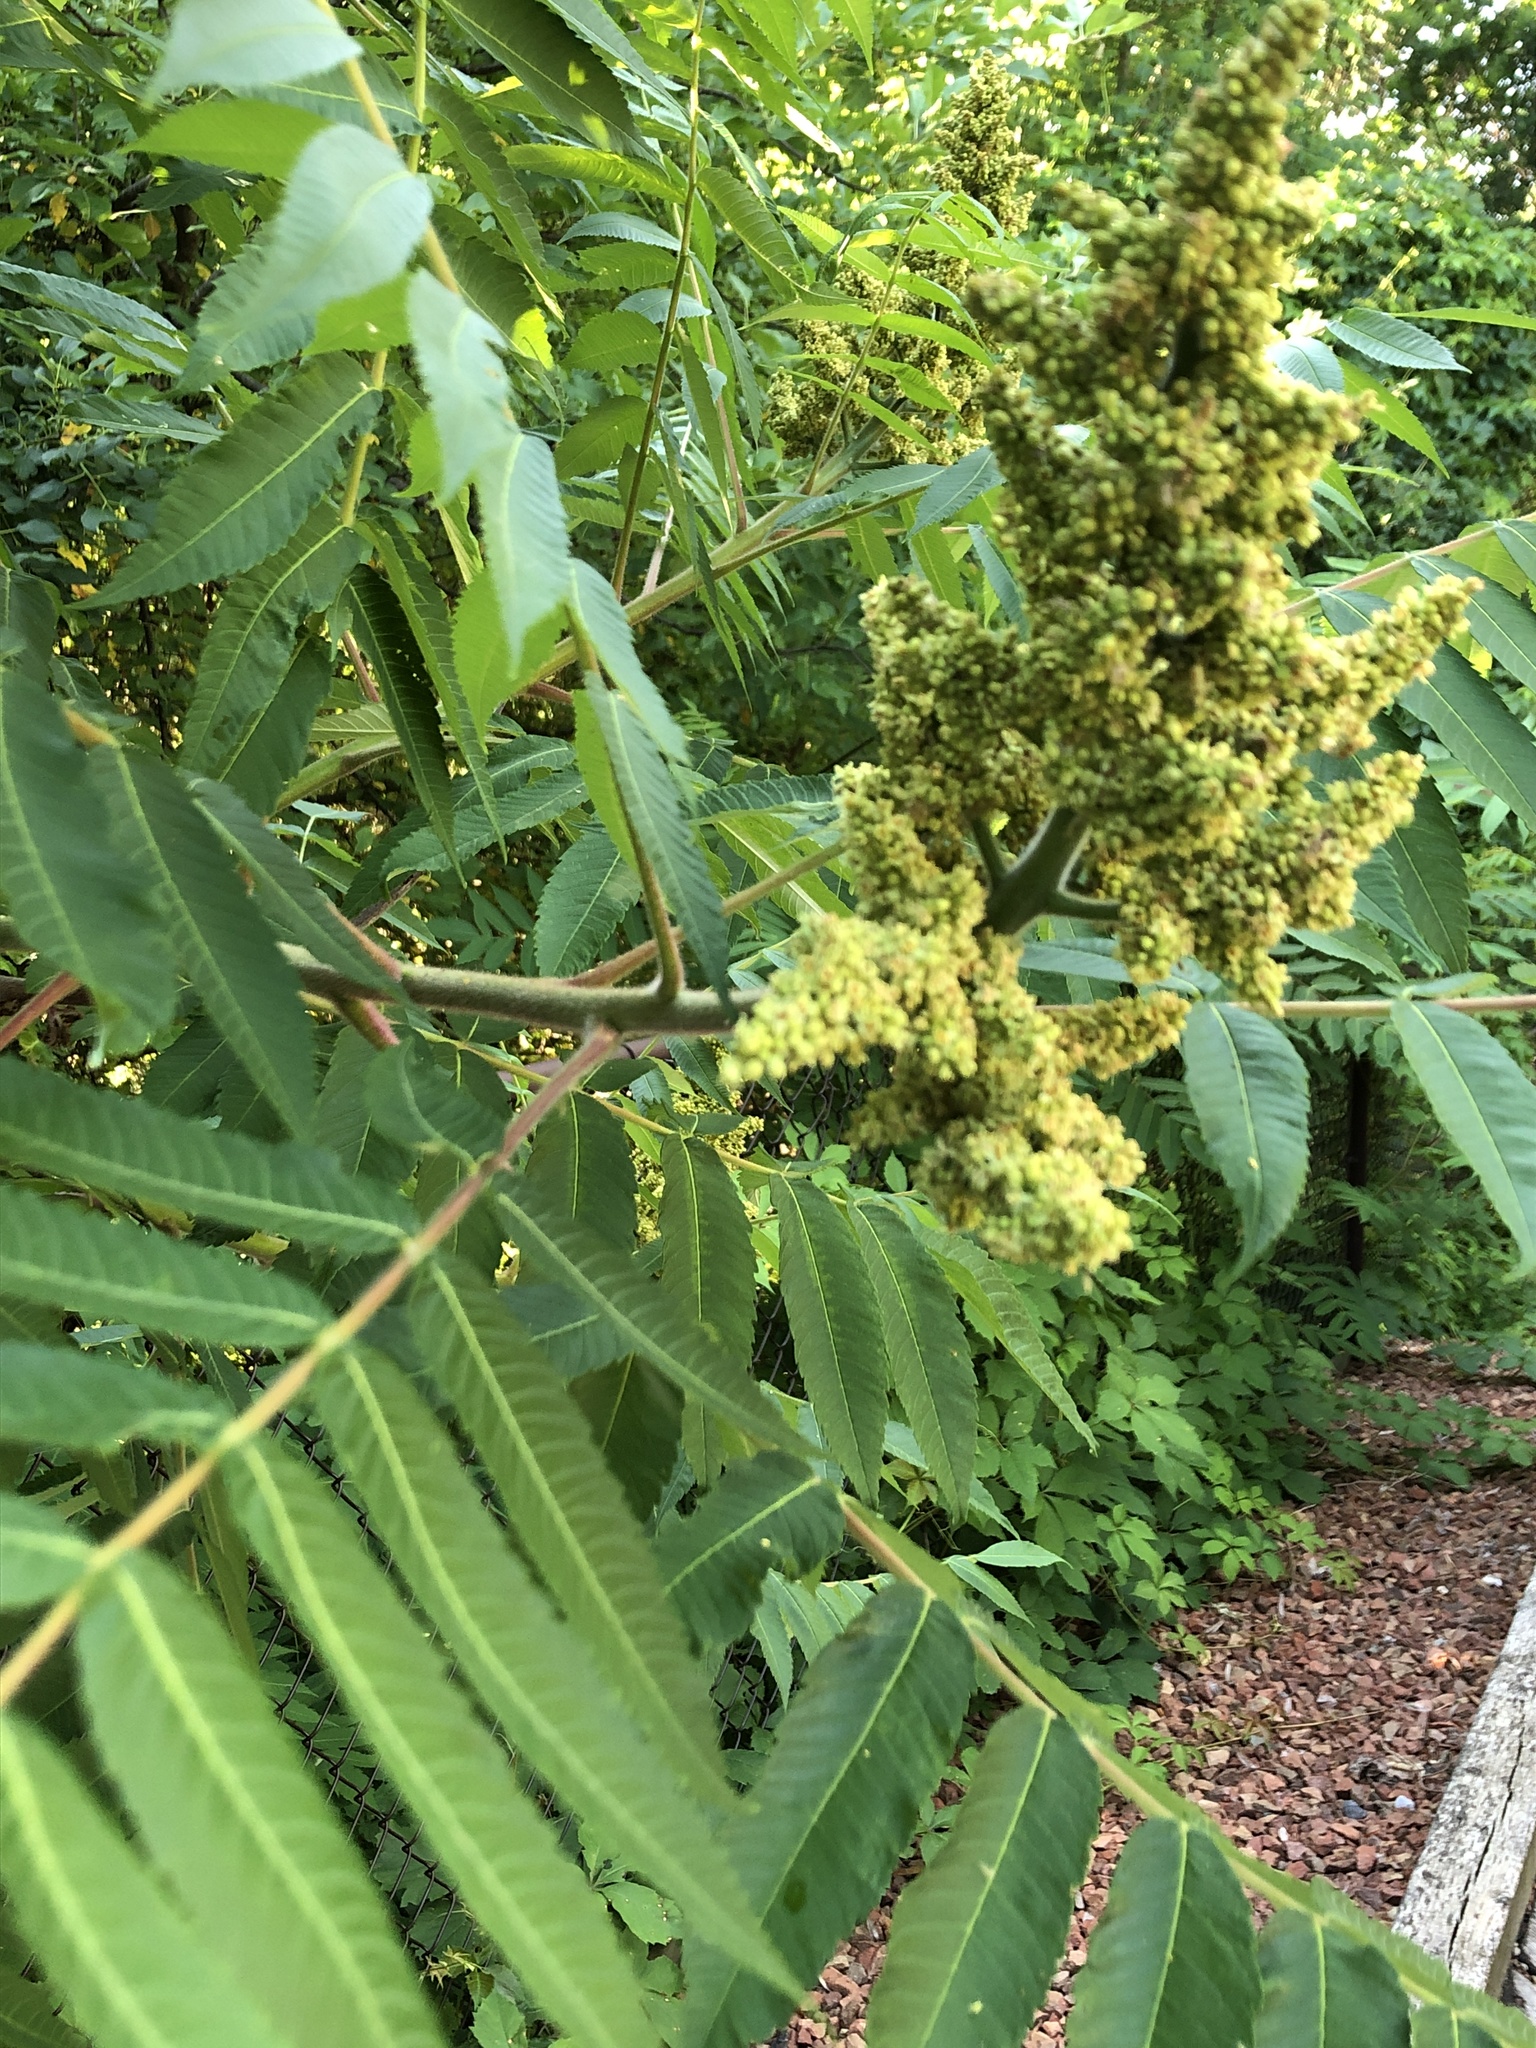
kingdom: Plantae
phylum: Tracheophyta
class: Magnoliopsida
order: Sapindales
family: Anacardiaceae
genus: Rhus
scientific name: Rhus typhina
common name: Staghorn sumac
